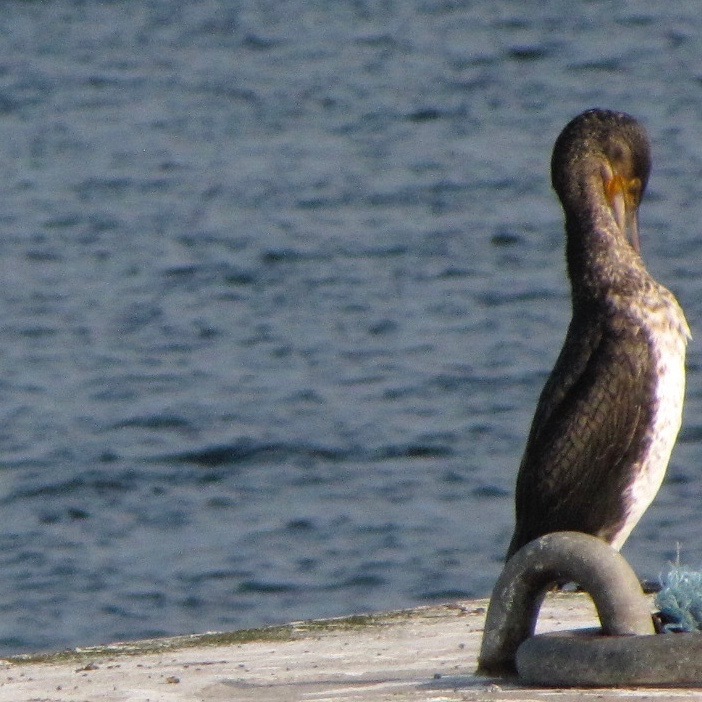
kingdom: Animalia
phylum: Chordata
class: Aves
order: Suliformes
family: Phalacrocoracidae
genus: Phalacrocorax
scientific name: Phalacrocorax carbo
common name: Great cormorant
